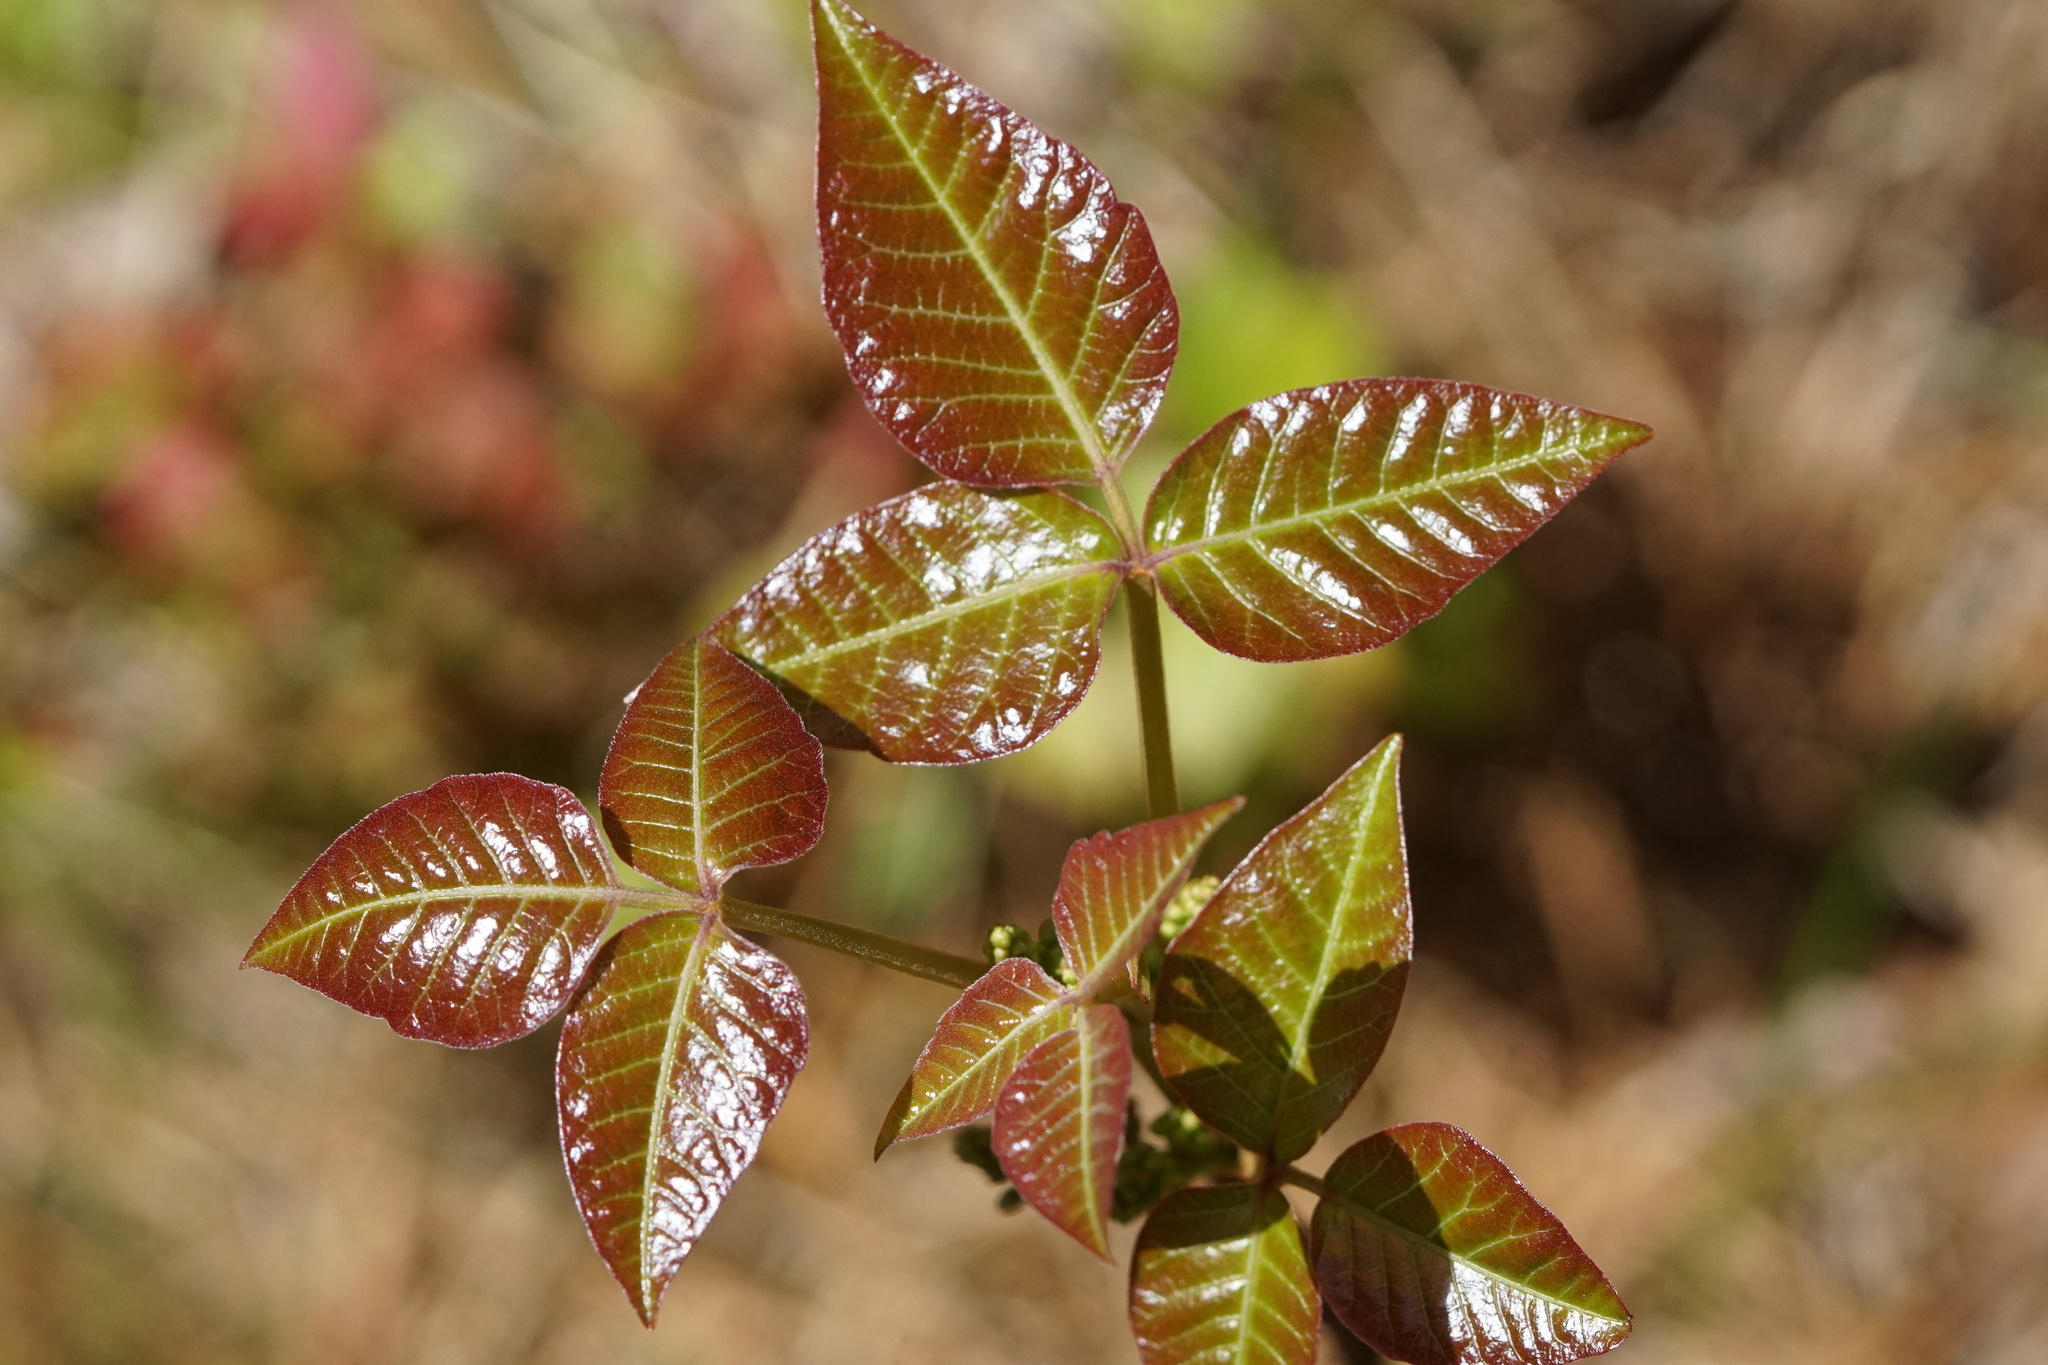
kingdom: Plantae
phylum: Tracheophyta
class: Magnoliopsida
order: Sapindales
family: Anacardiaceae
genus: Toxicodendron
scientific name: Toxicodendron radicans
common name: Poison ivy
